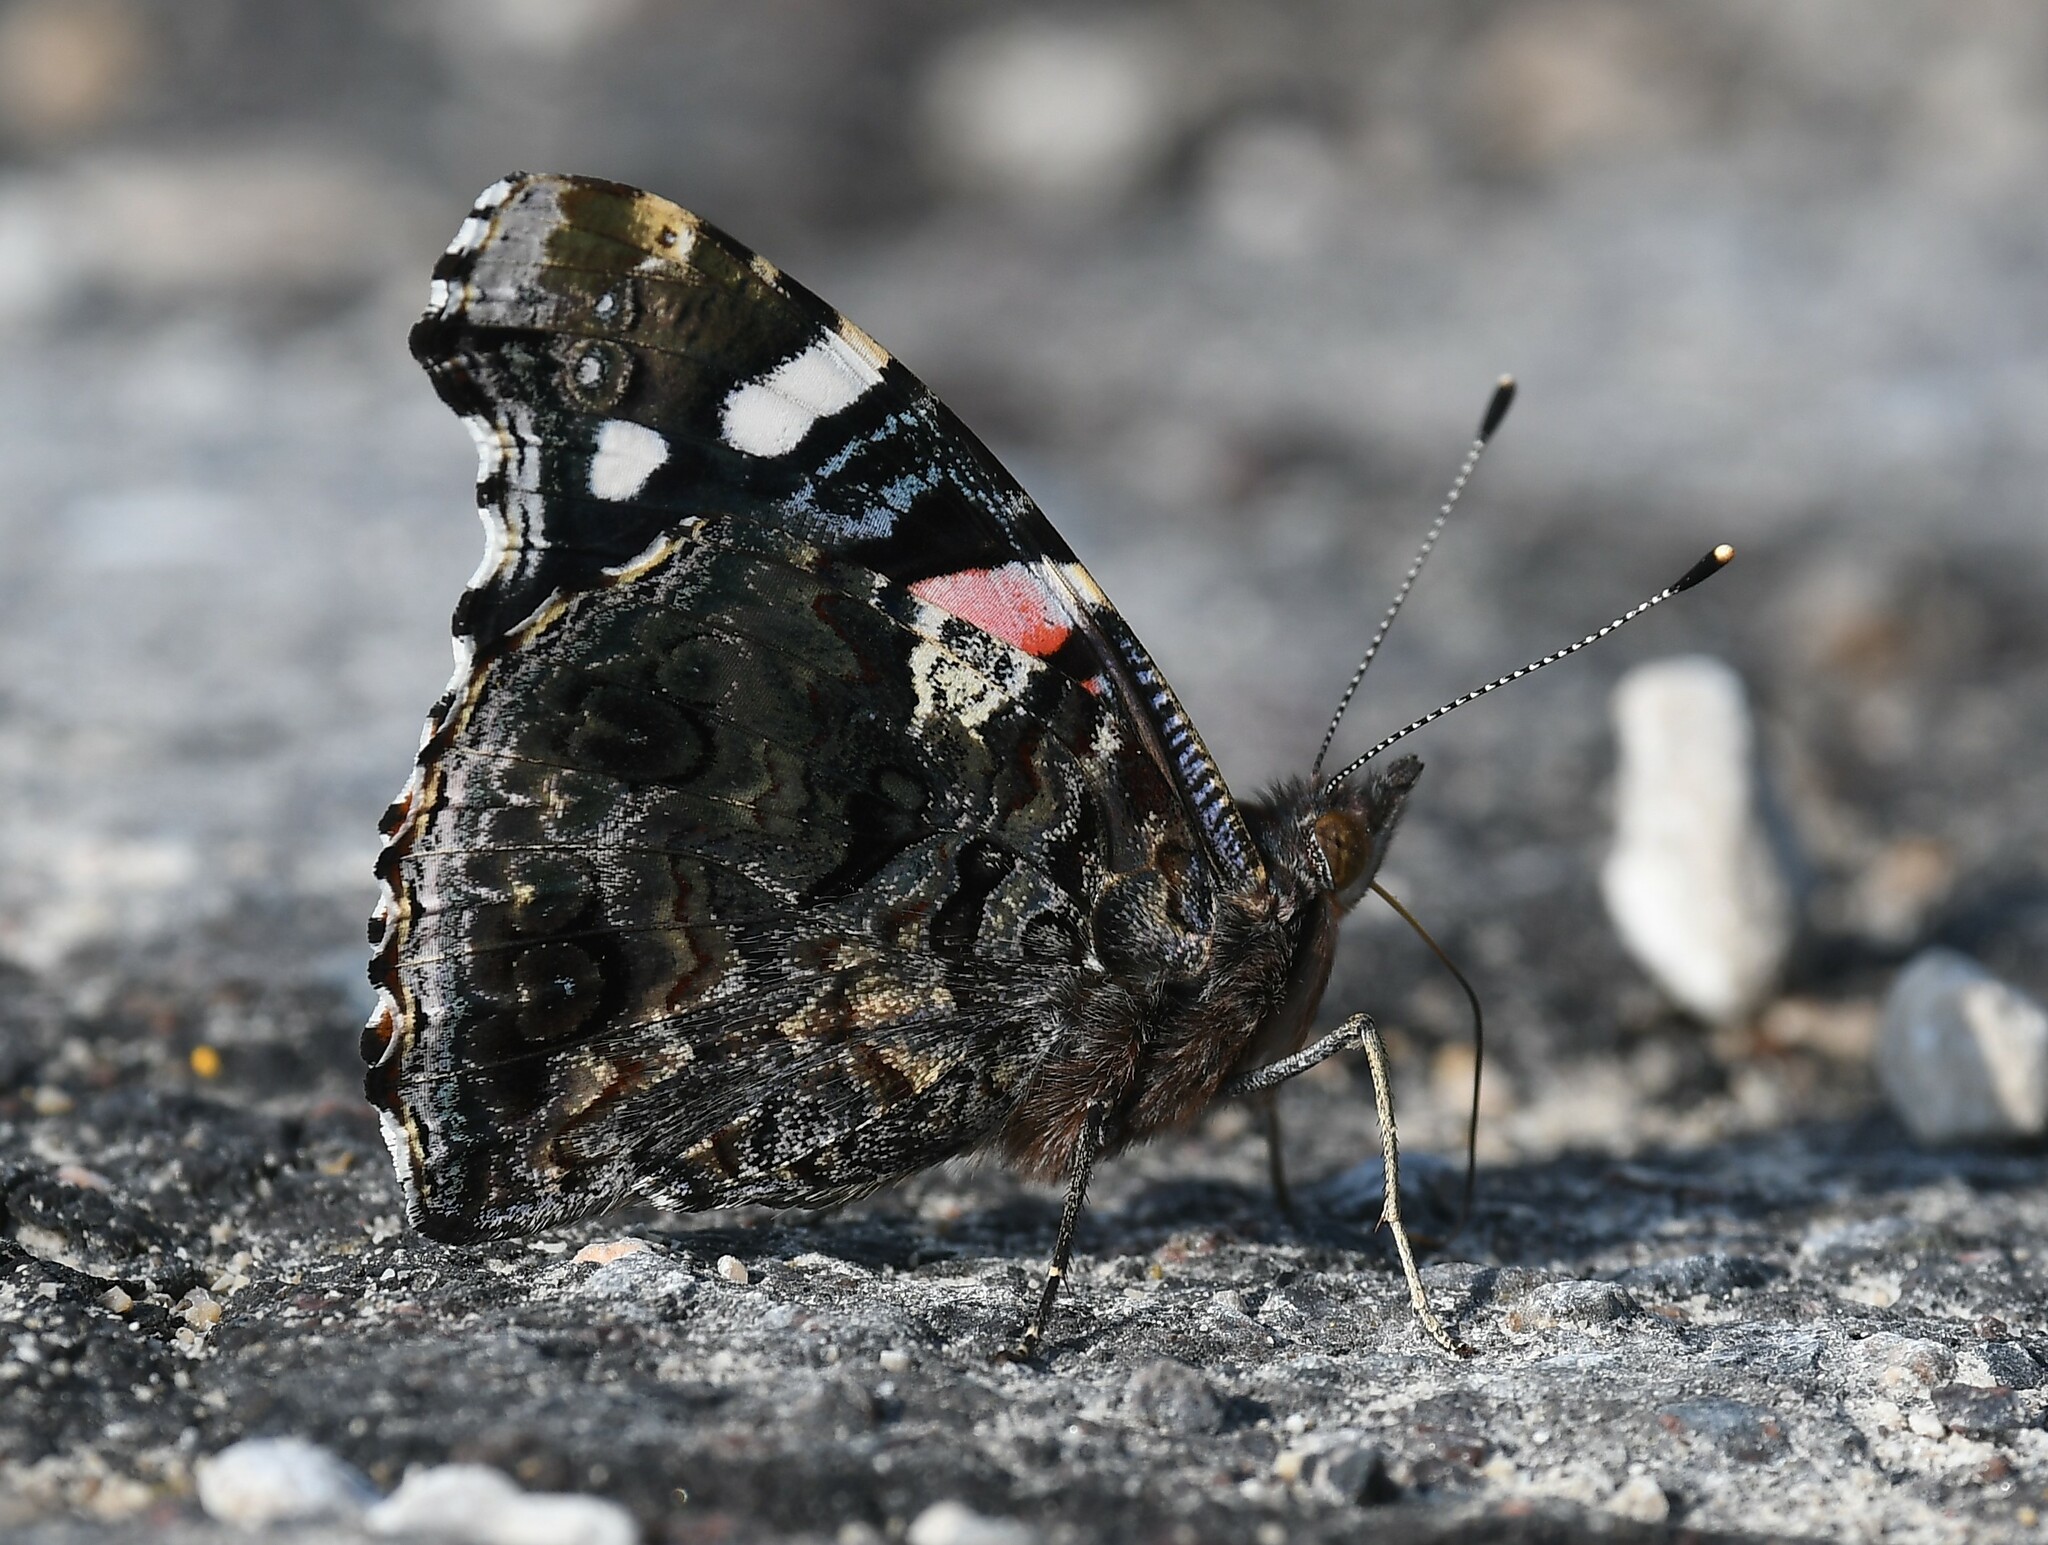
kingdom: Animalia
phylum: Arthropoda
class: Insecta
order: Lepidoptera
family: Nymphalidae
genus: Vanessa
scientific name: Vanessa atalanta
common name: Red admiral
